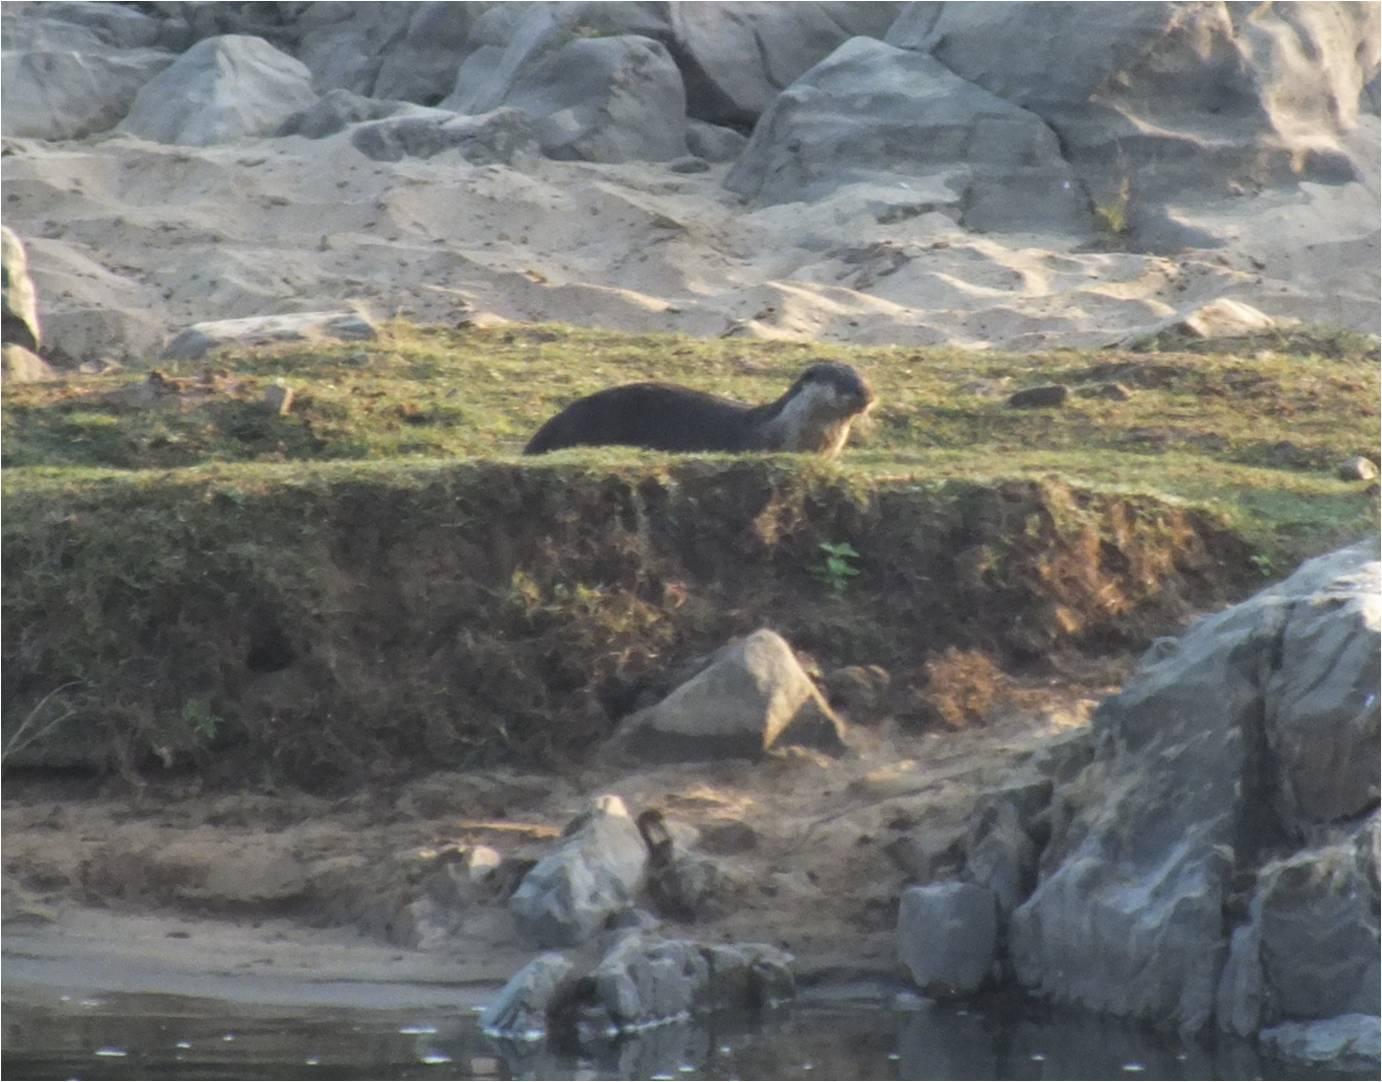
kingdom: Animalia
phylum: Chordata
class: Mammalia
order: Carnivora
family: Mustelidae
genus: Aonyx
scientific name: Aonyx capensis
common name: African clawless otter
